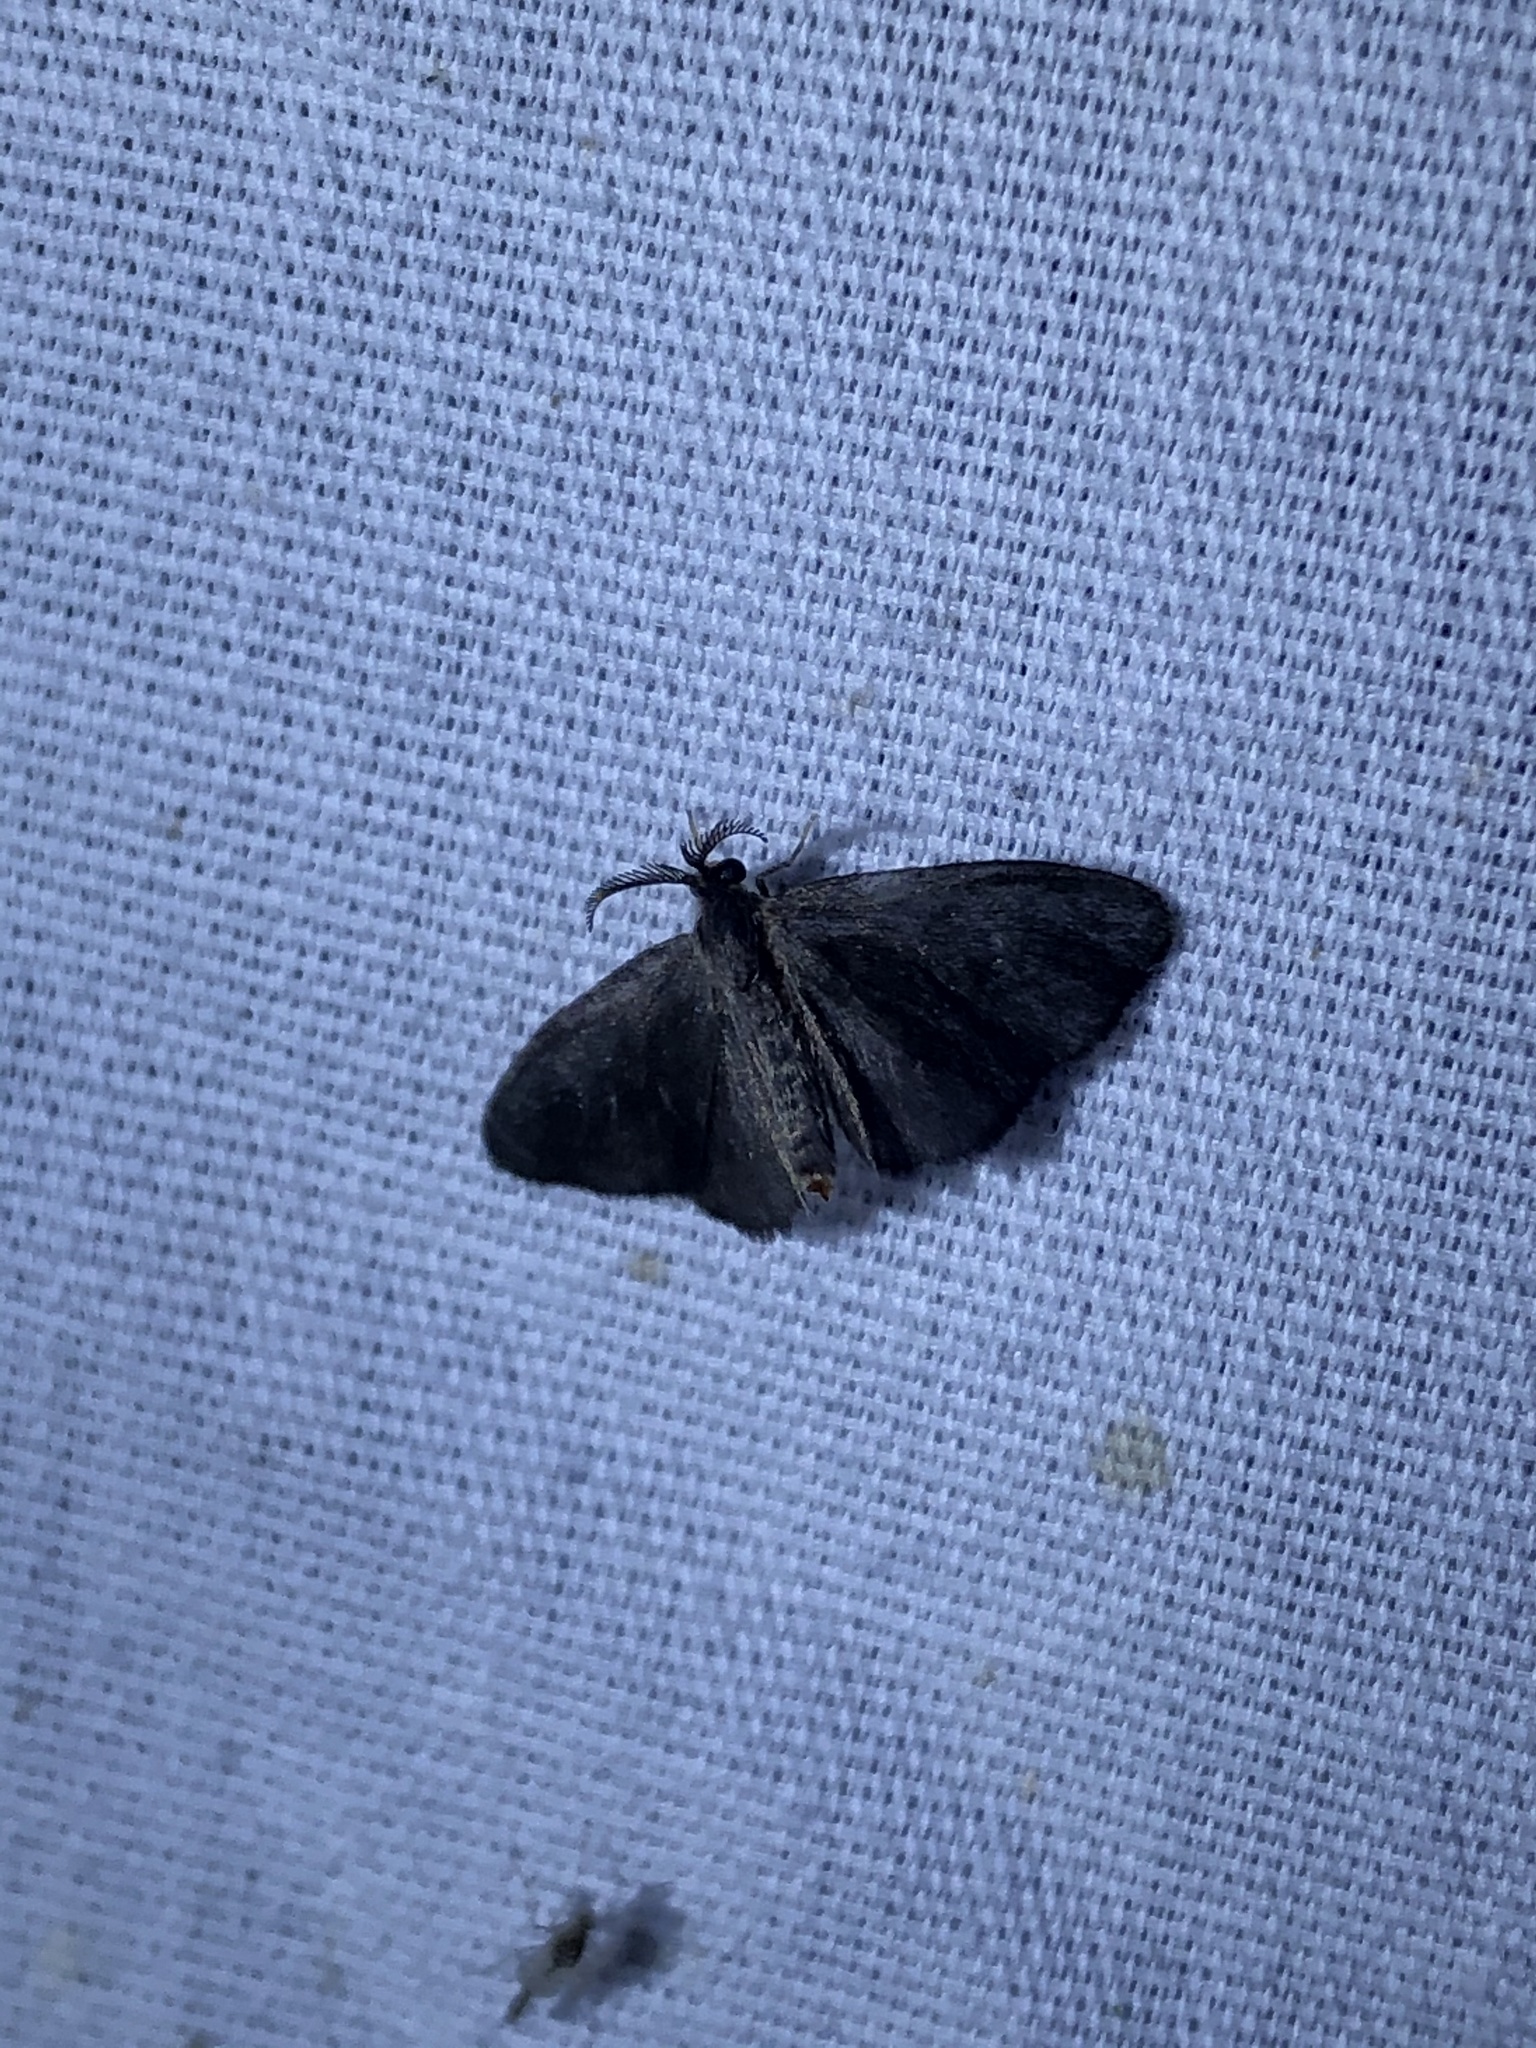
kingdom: Animalia
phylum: Arthropoda
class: Insecta
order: Lepidoptera
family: Psychidae
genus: Cryptothelea
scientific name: Cryptothelea gloverii
